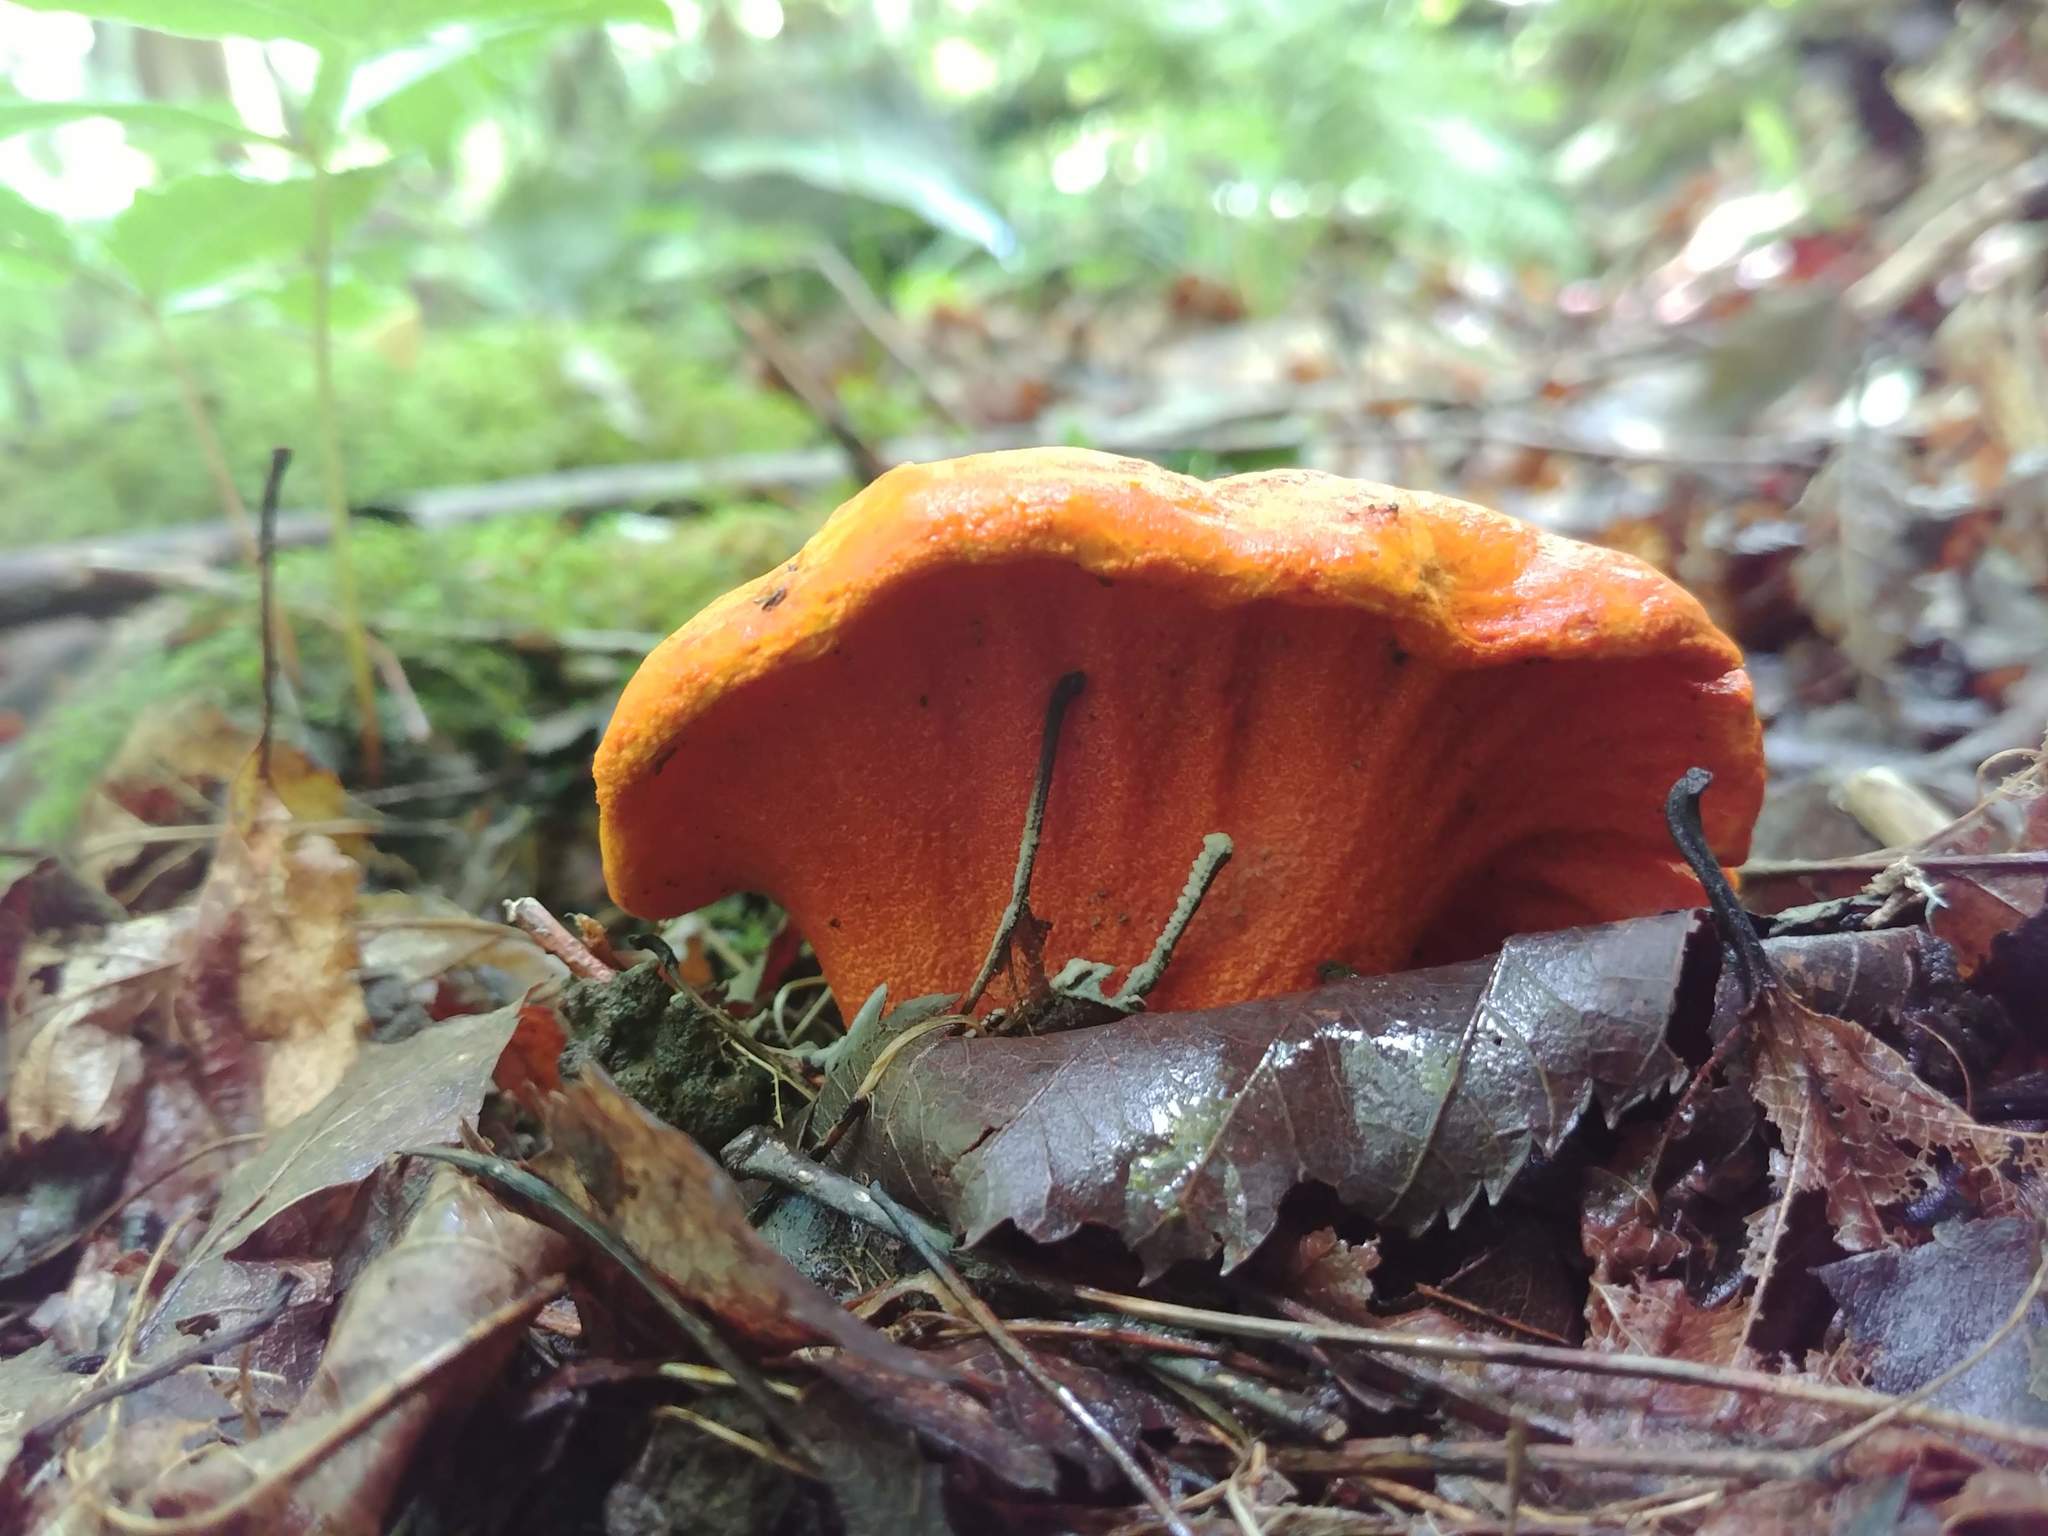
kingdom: Fungi
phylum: Ascomycota
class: Sordariomycetes
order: Hypocreales
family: Hypocreaceae
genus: Hypomyces
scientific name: Hypomyces lactifluorum
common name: Lobster mushroom
